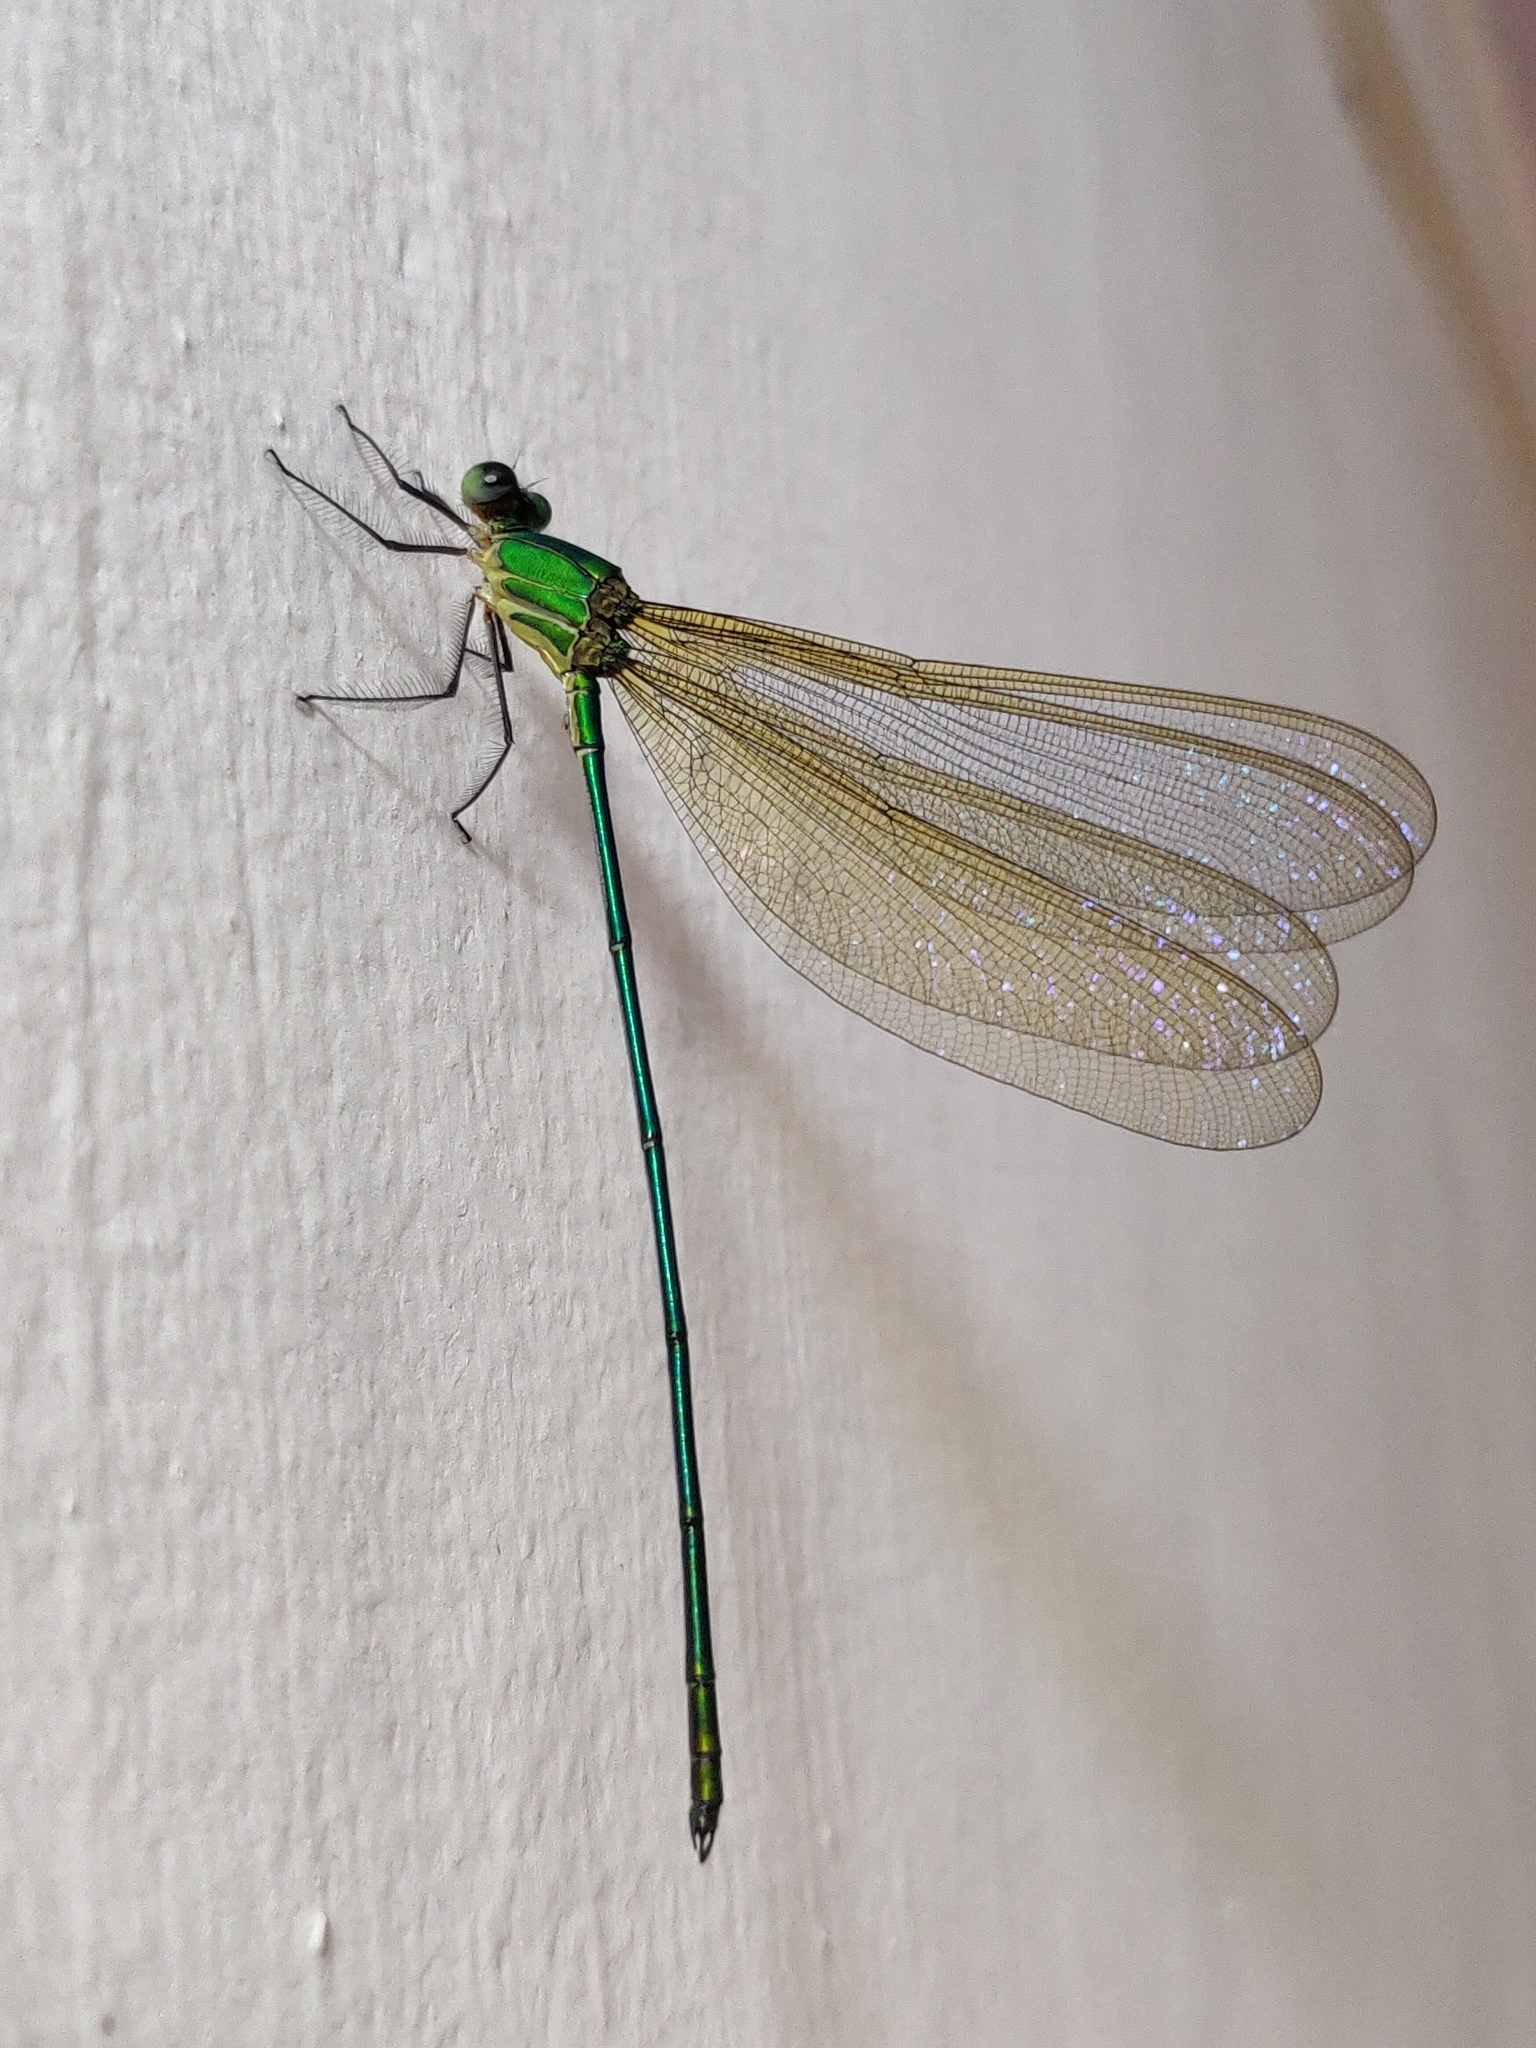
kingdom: Animalia
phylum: Arthropoda
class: Insecta
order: Odonata
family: Calopterygidae
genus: Vestalis
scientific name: Vestalis gracilis
